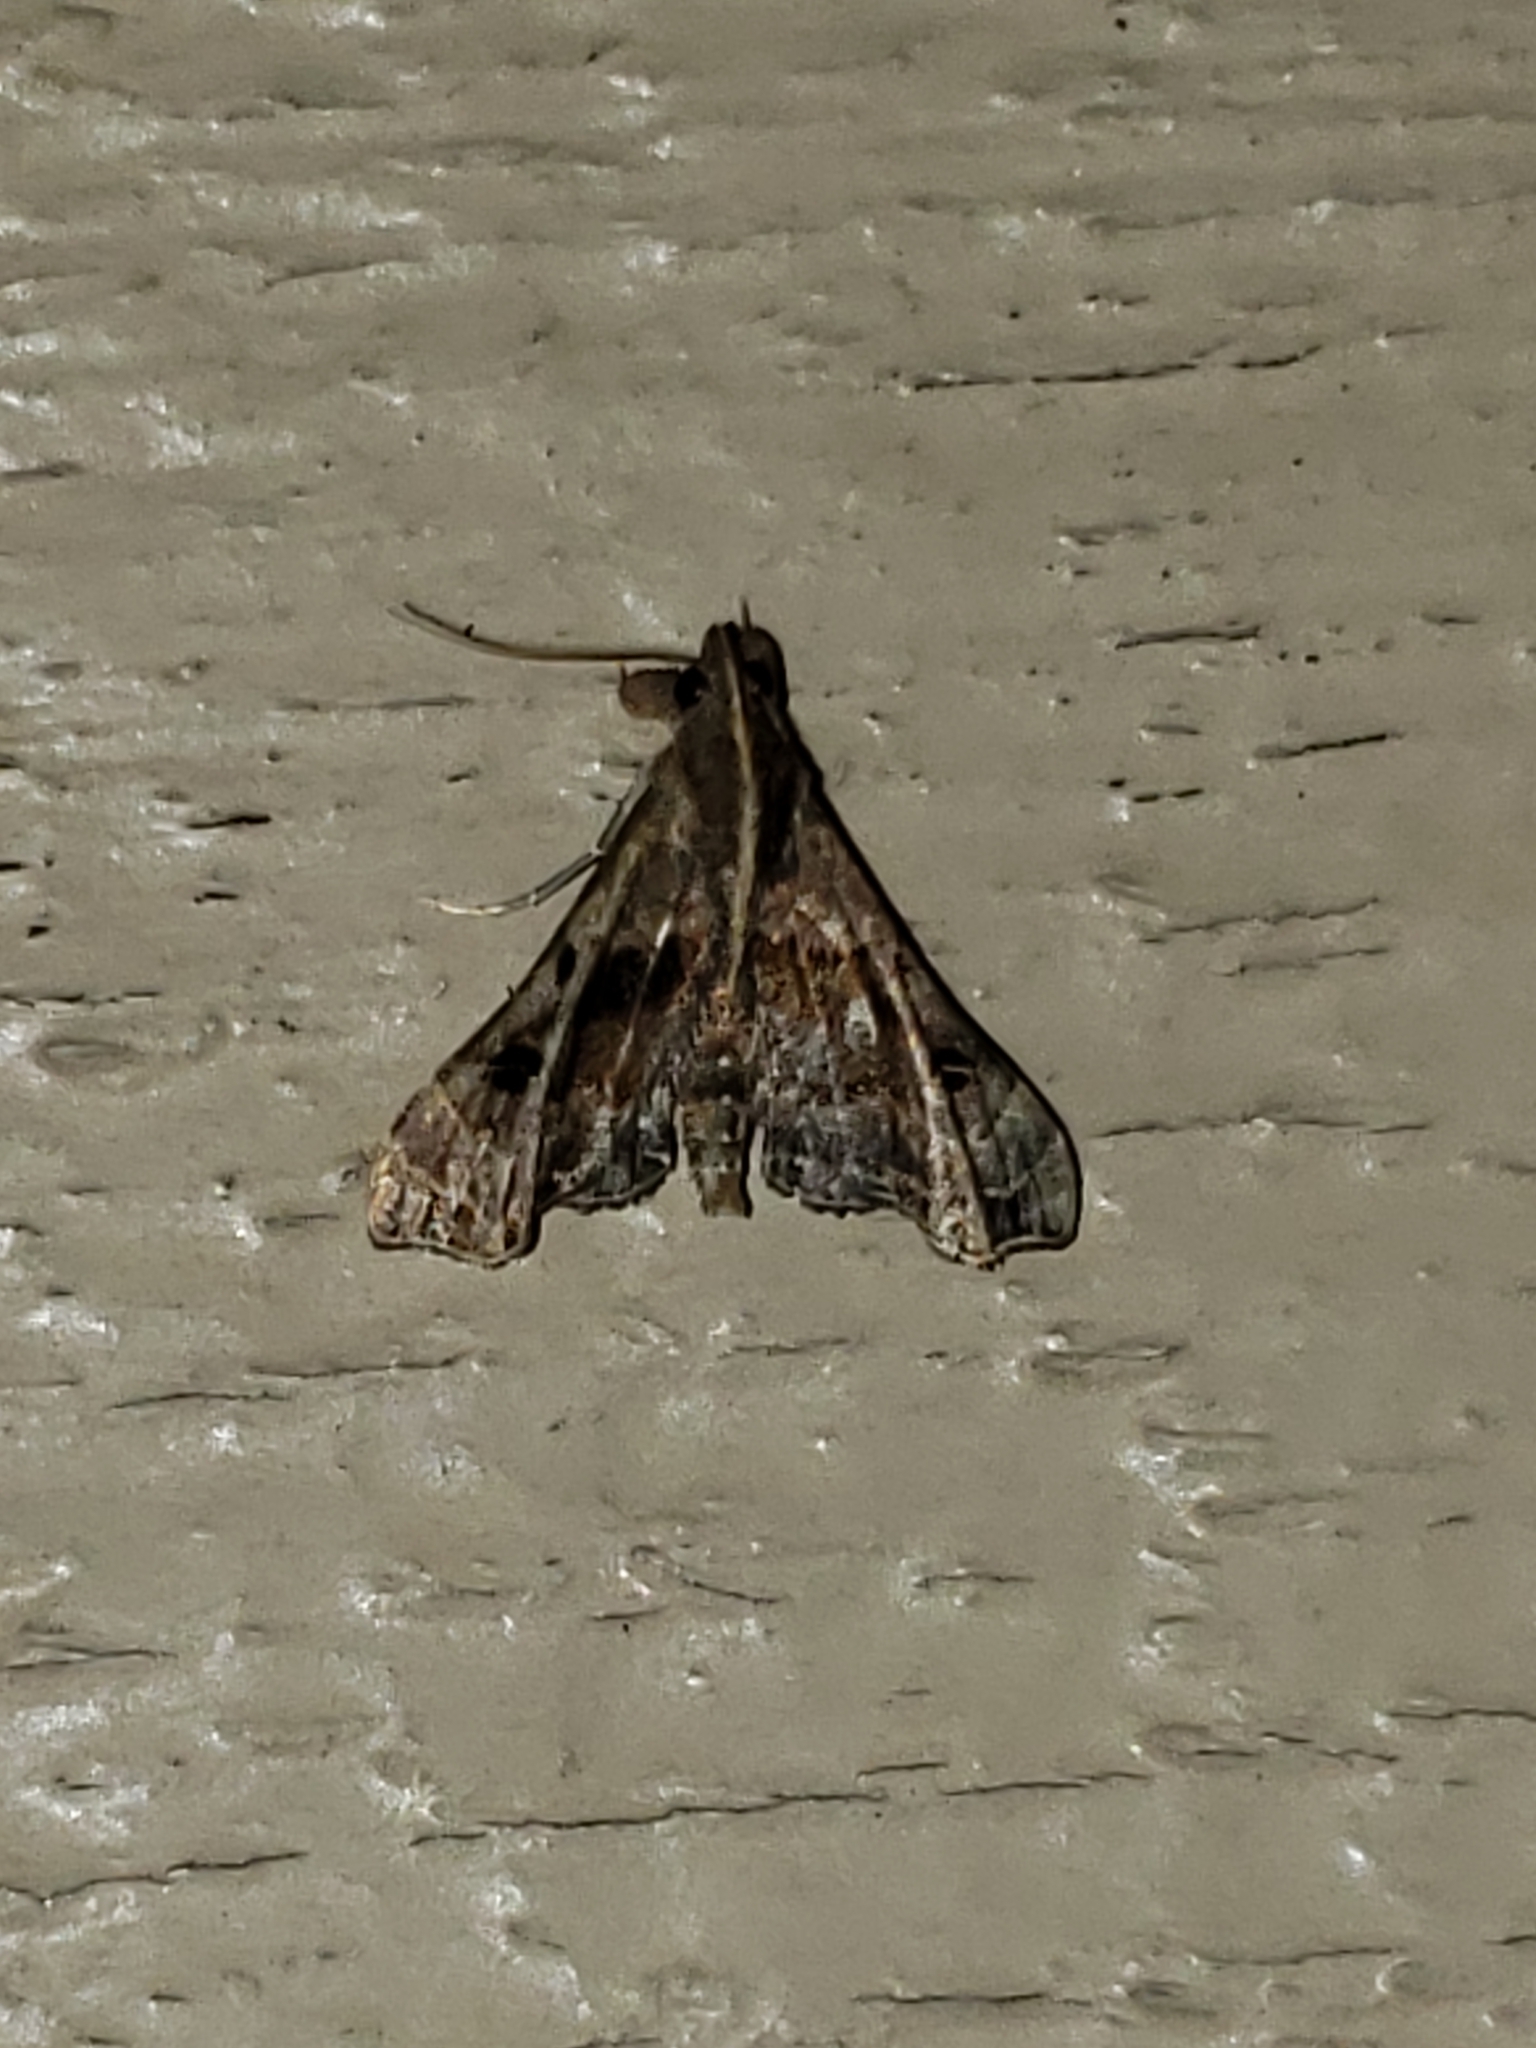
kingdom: Animalia
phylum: Arthropoda
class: Insecta
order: Lepidoptera
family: Erebidae
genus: Palthis
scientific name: Palthis asopialis
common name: Faint-spotted palthis moth
